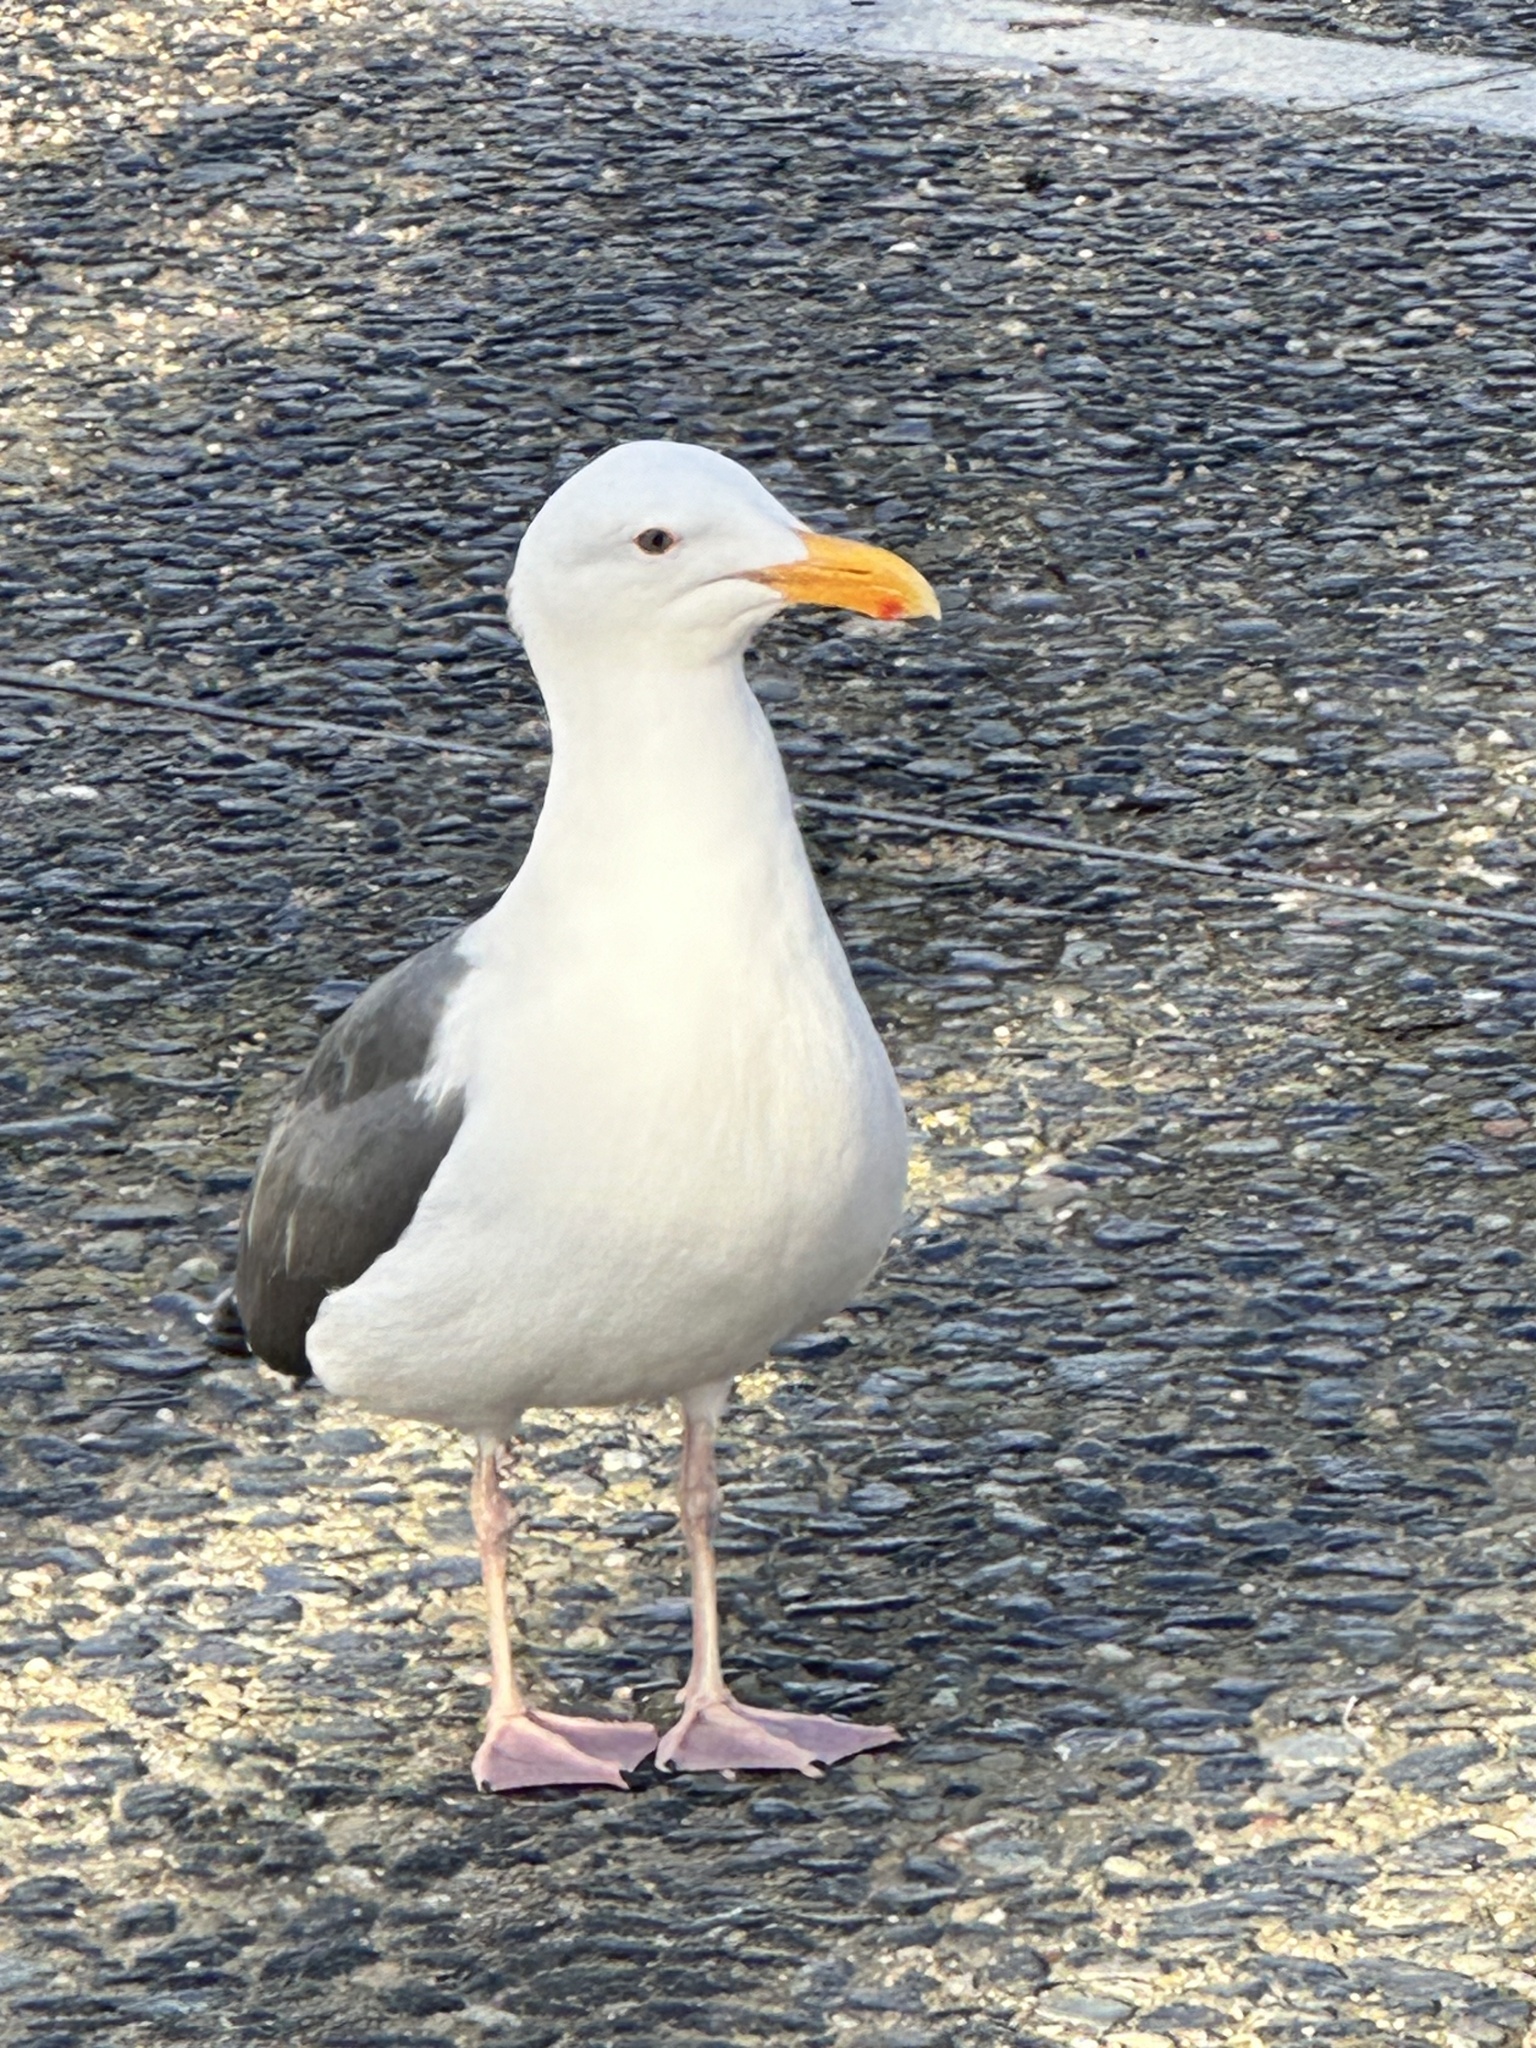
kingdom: Animalia
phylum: Chordata
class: Aves
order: Charadriiformes
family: Laridae
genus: Larus
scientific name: Larus occidentalis
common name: Western gull
